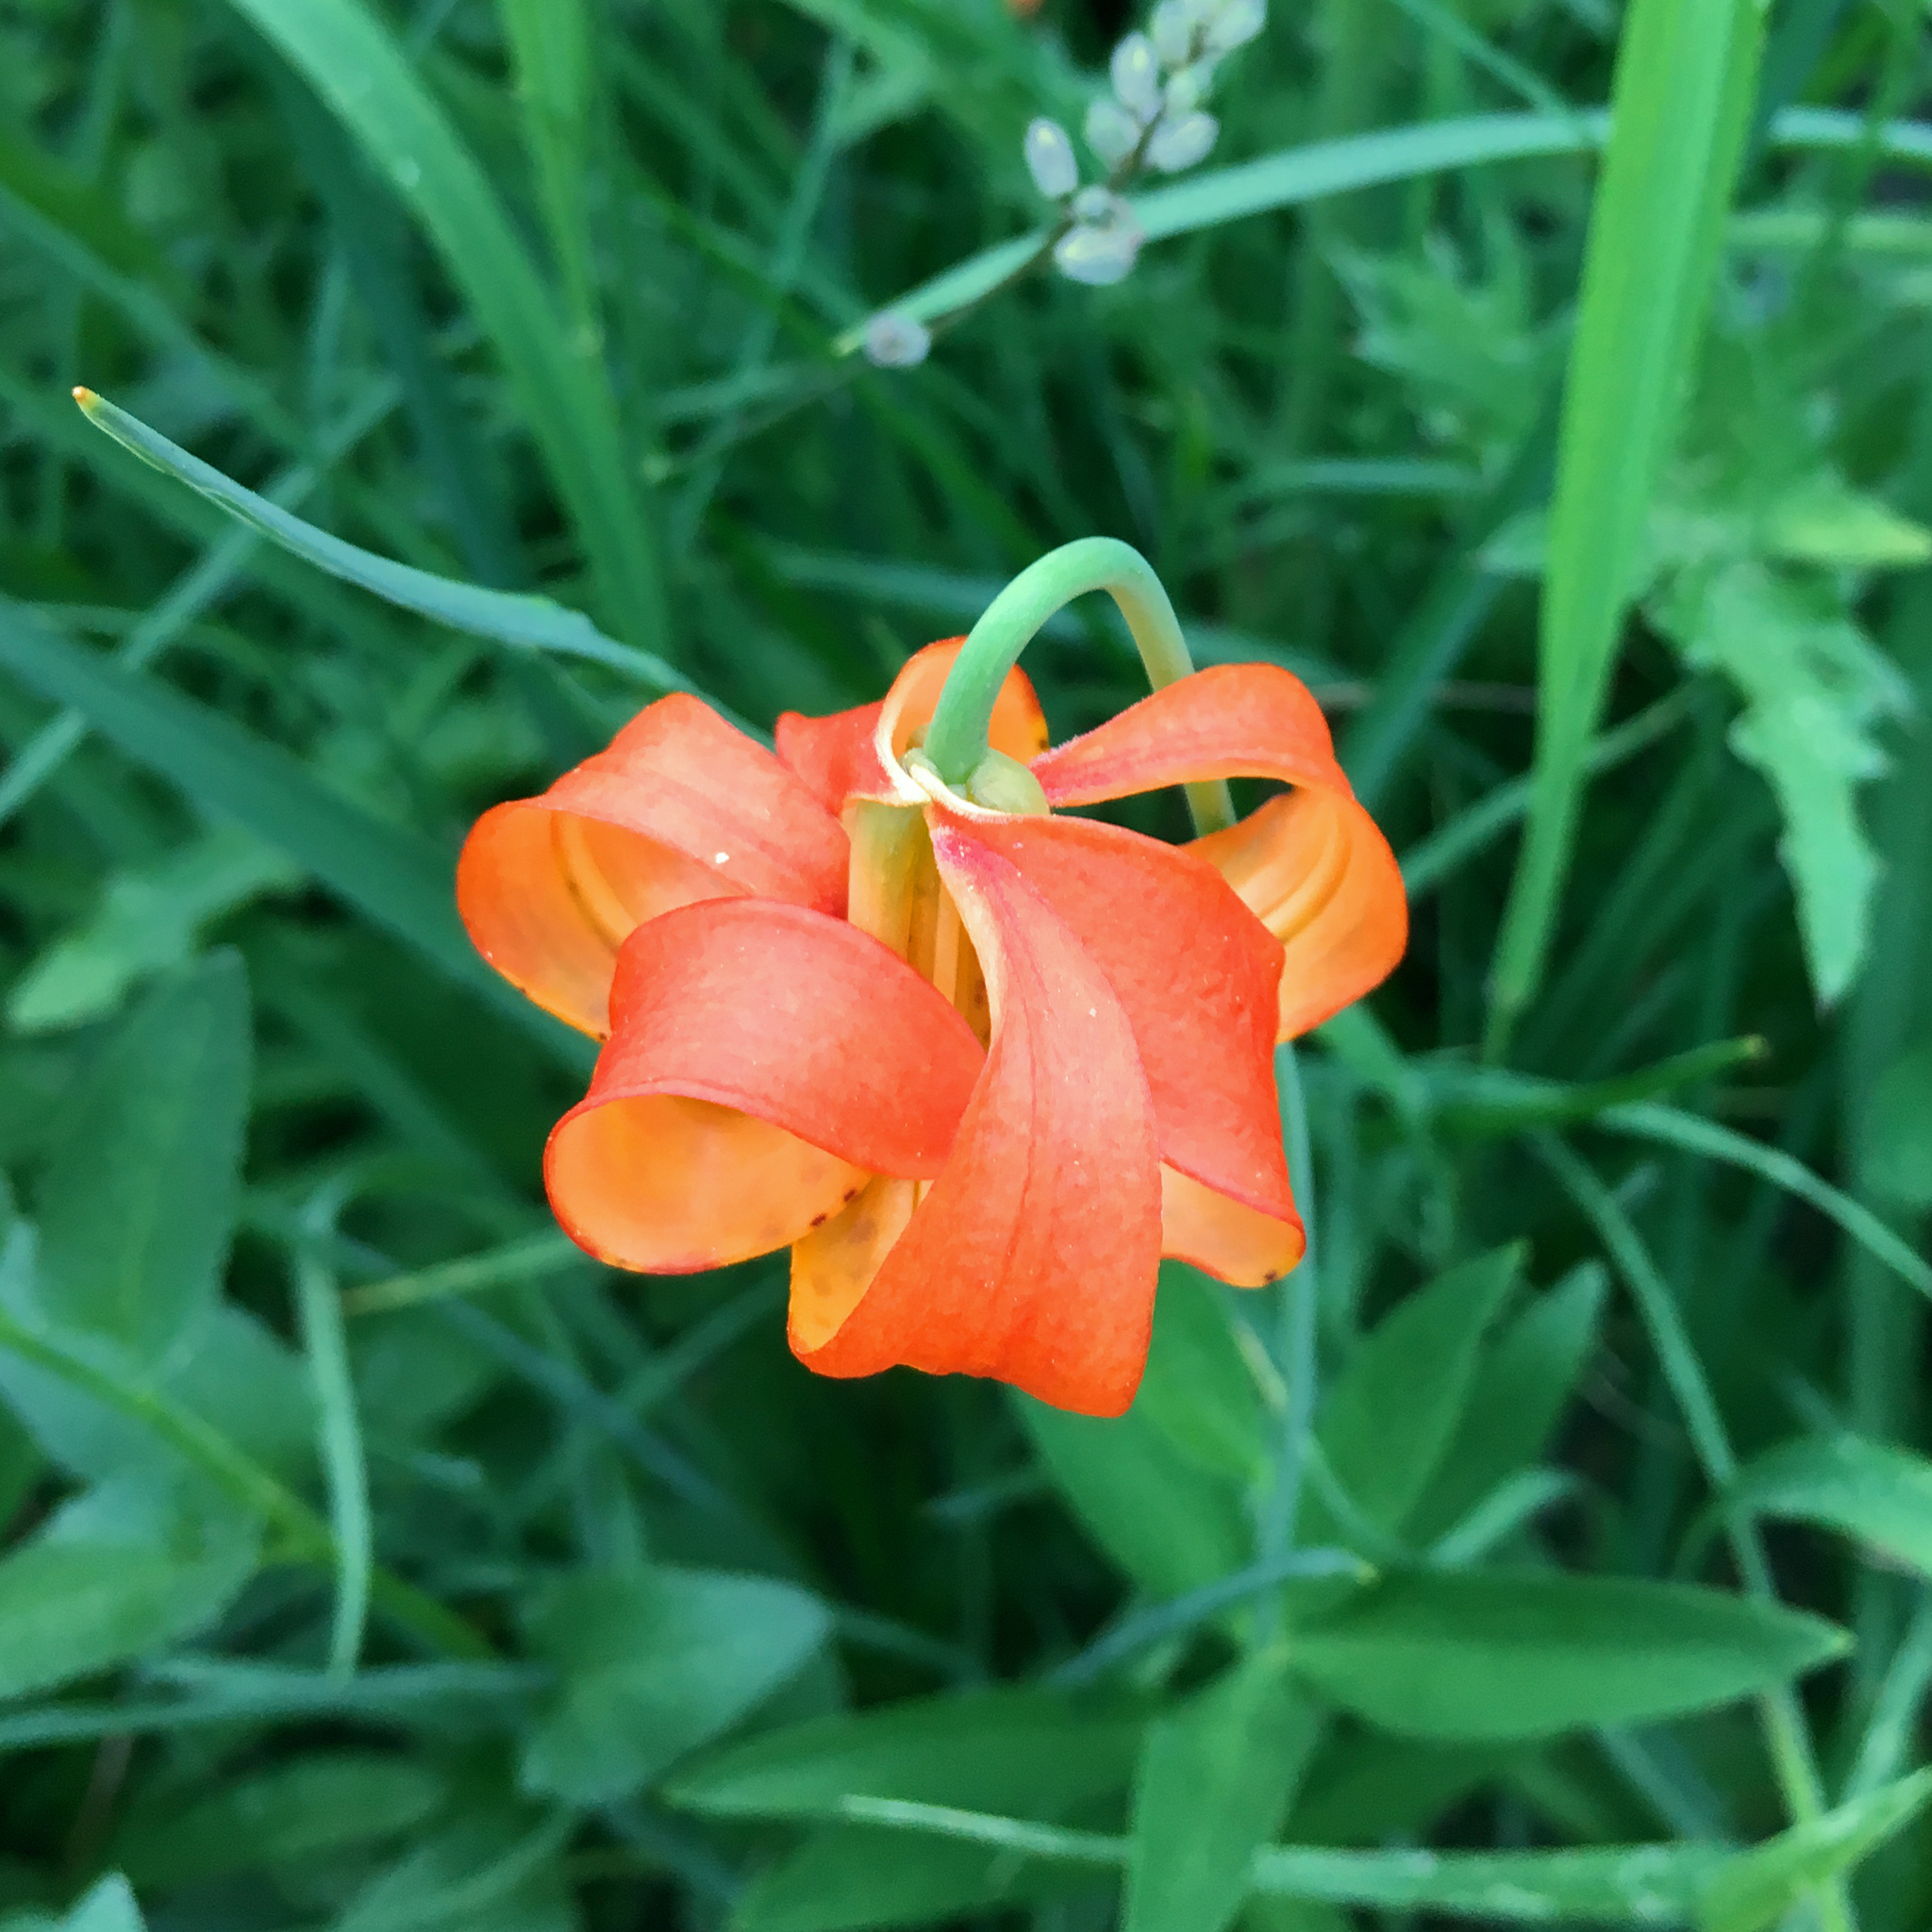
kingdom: Plantae
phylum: Tracheophyta
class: Liliopsida
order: Liliales
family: Liliaceae
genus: Lilium
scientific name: Lilium pardalinum
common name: Panther lily
